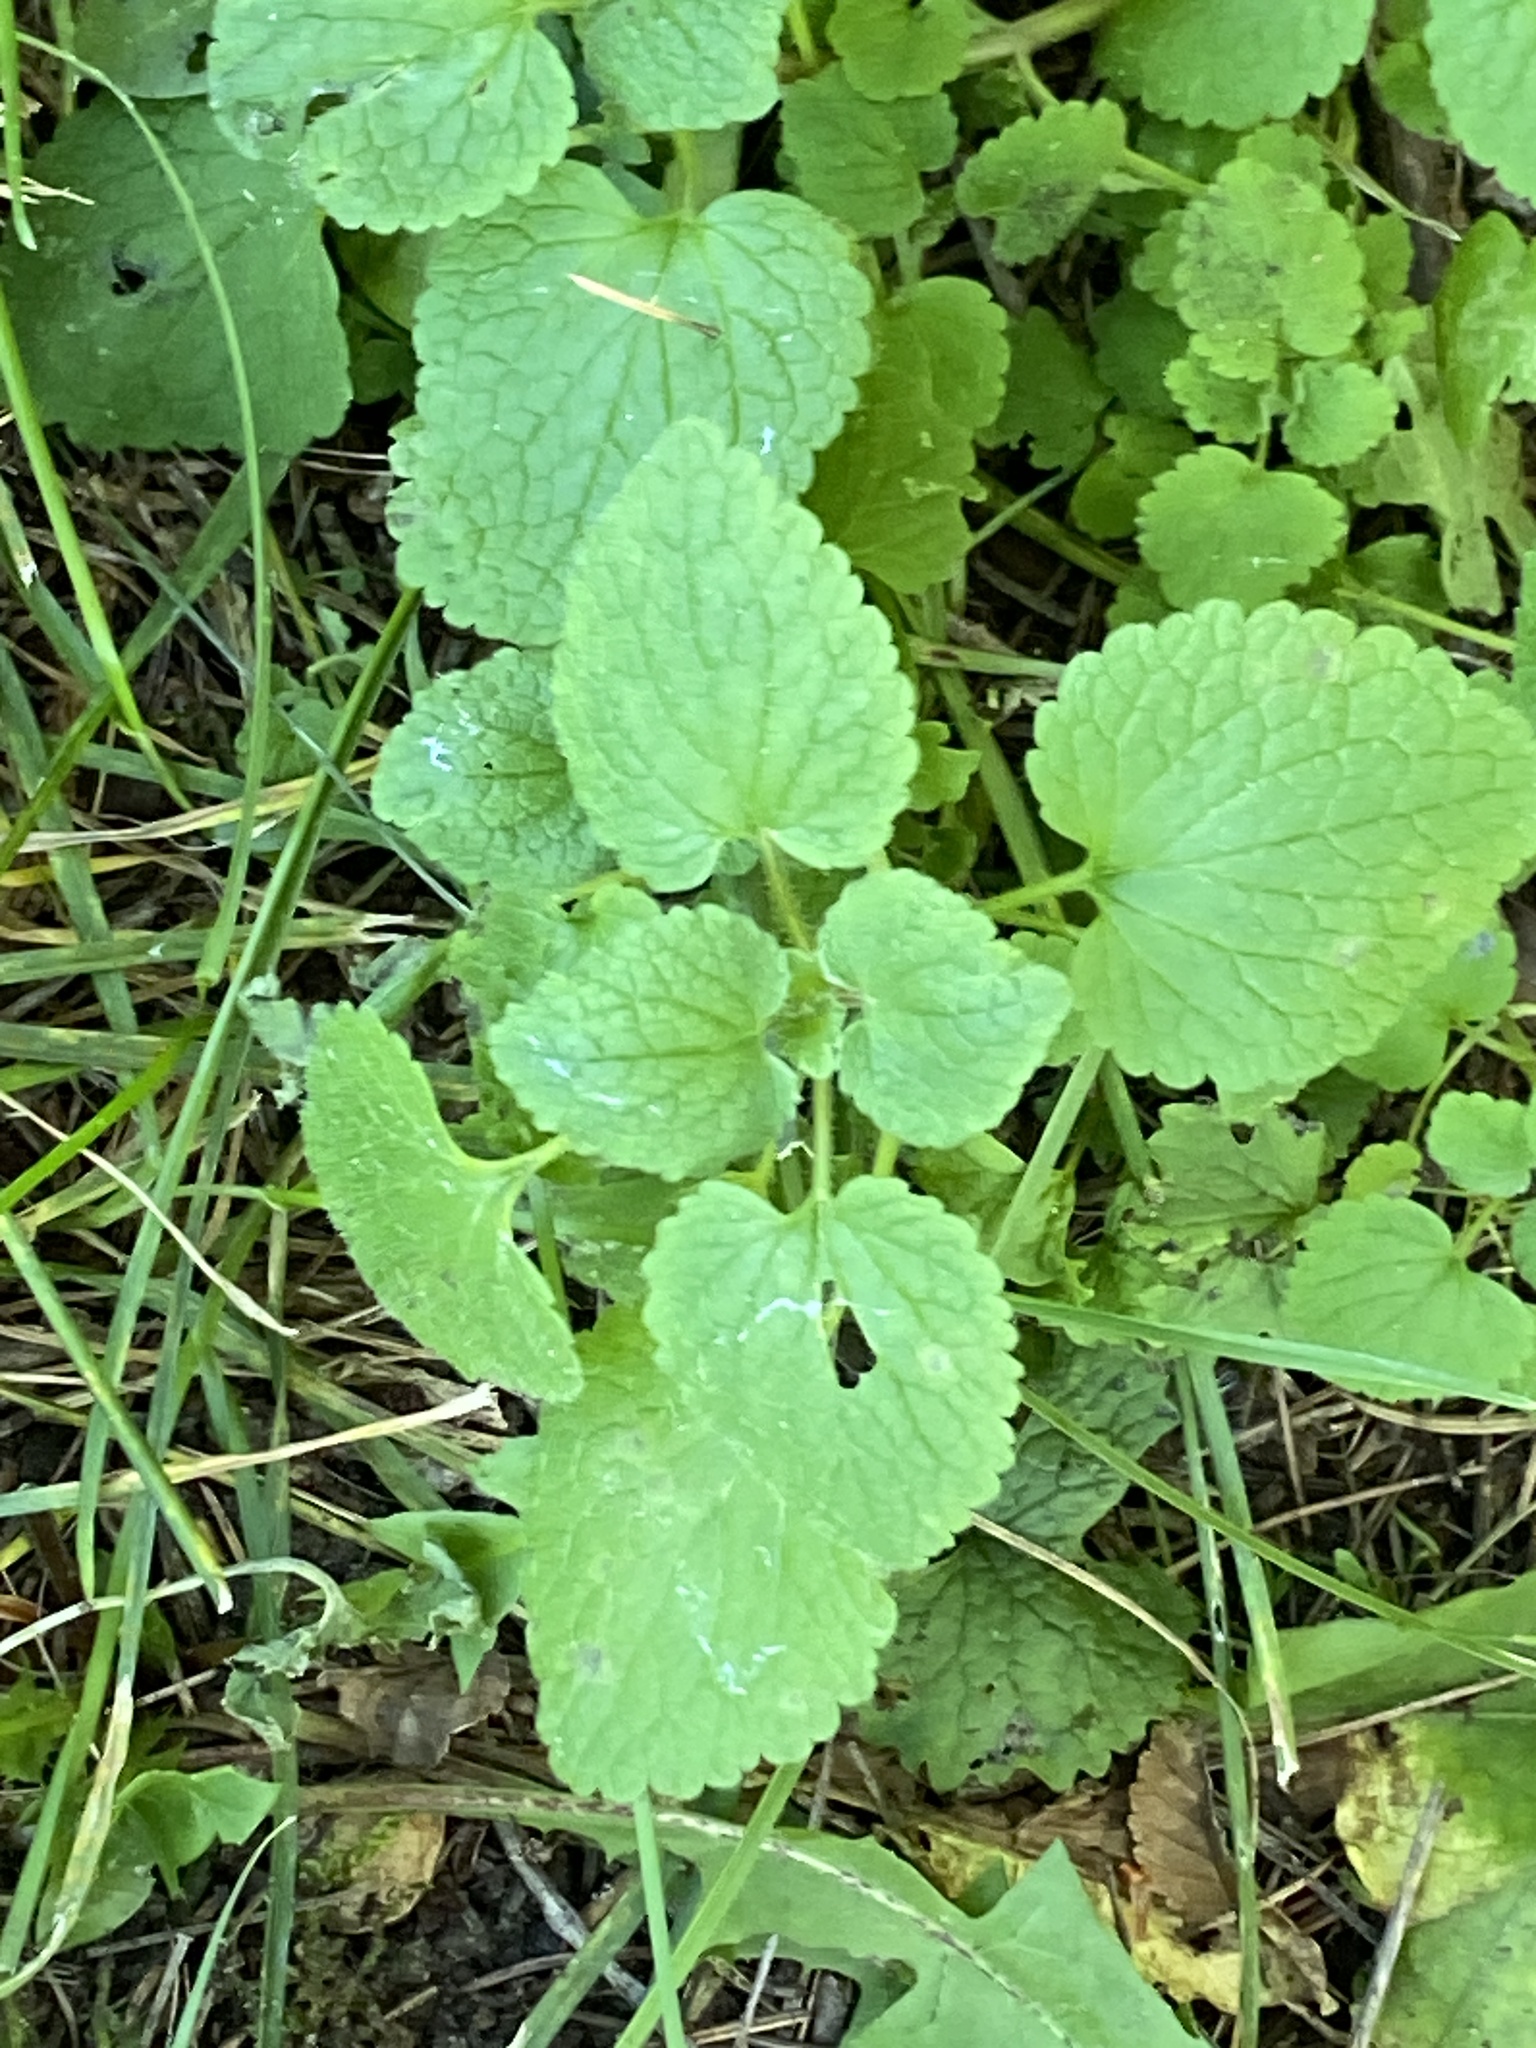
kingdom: Plantae
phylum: Tracheophyta
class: Magnoliopsida
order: Lamiales
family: Lamiaceae
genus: Lamium
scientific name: Lamium purpureum
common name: Red dead-nettle
